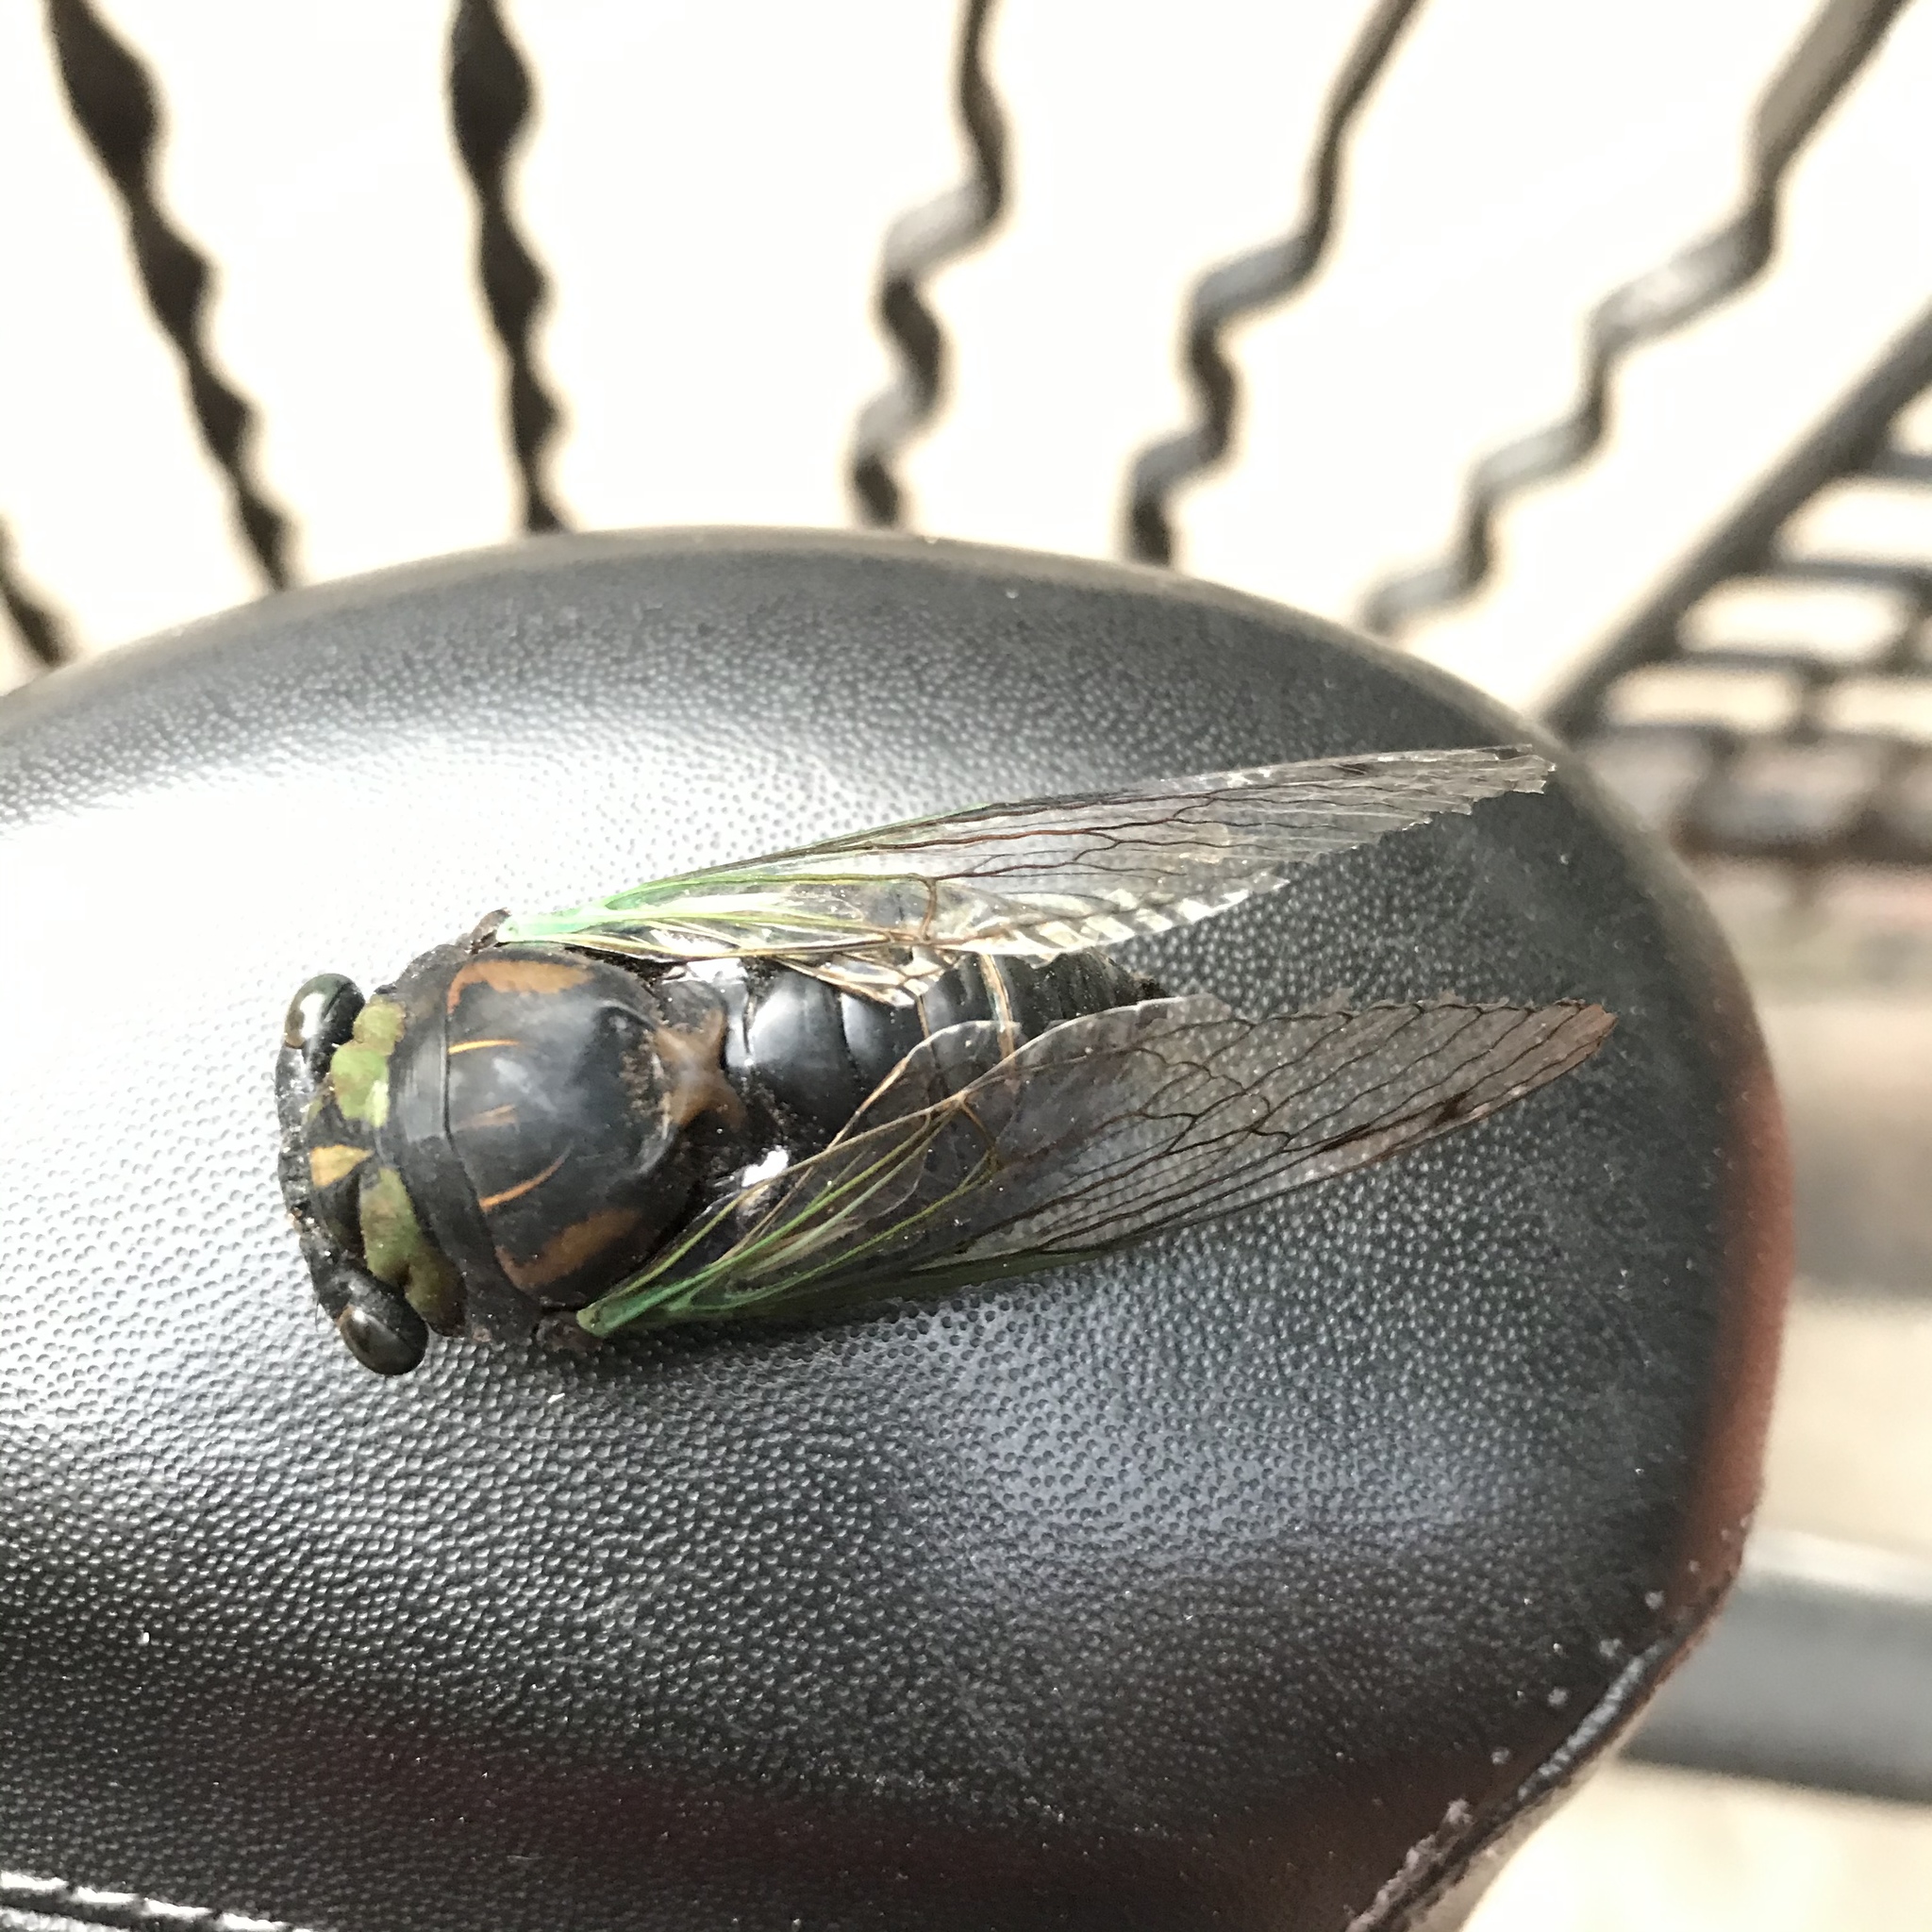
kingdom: Animalia
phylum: Arthropoda
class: Insecta
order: Hemiptera
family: Cicadidae
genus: Neotibicen
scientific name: Neotibicen tibicen
